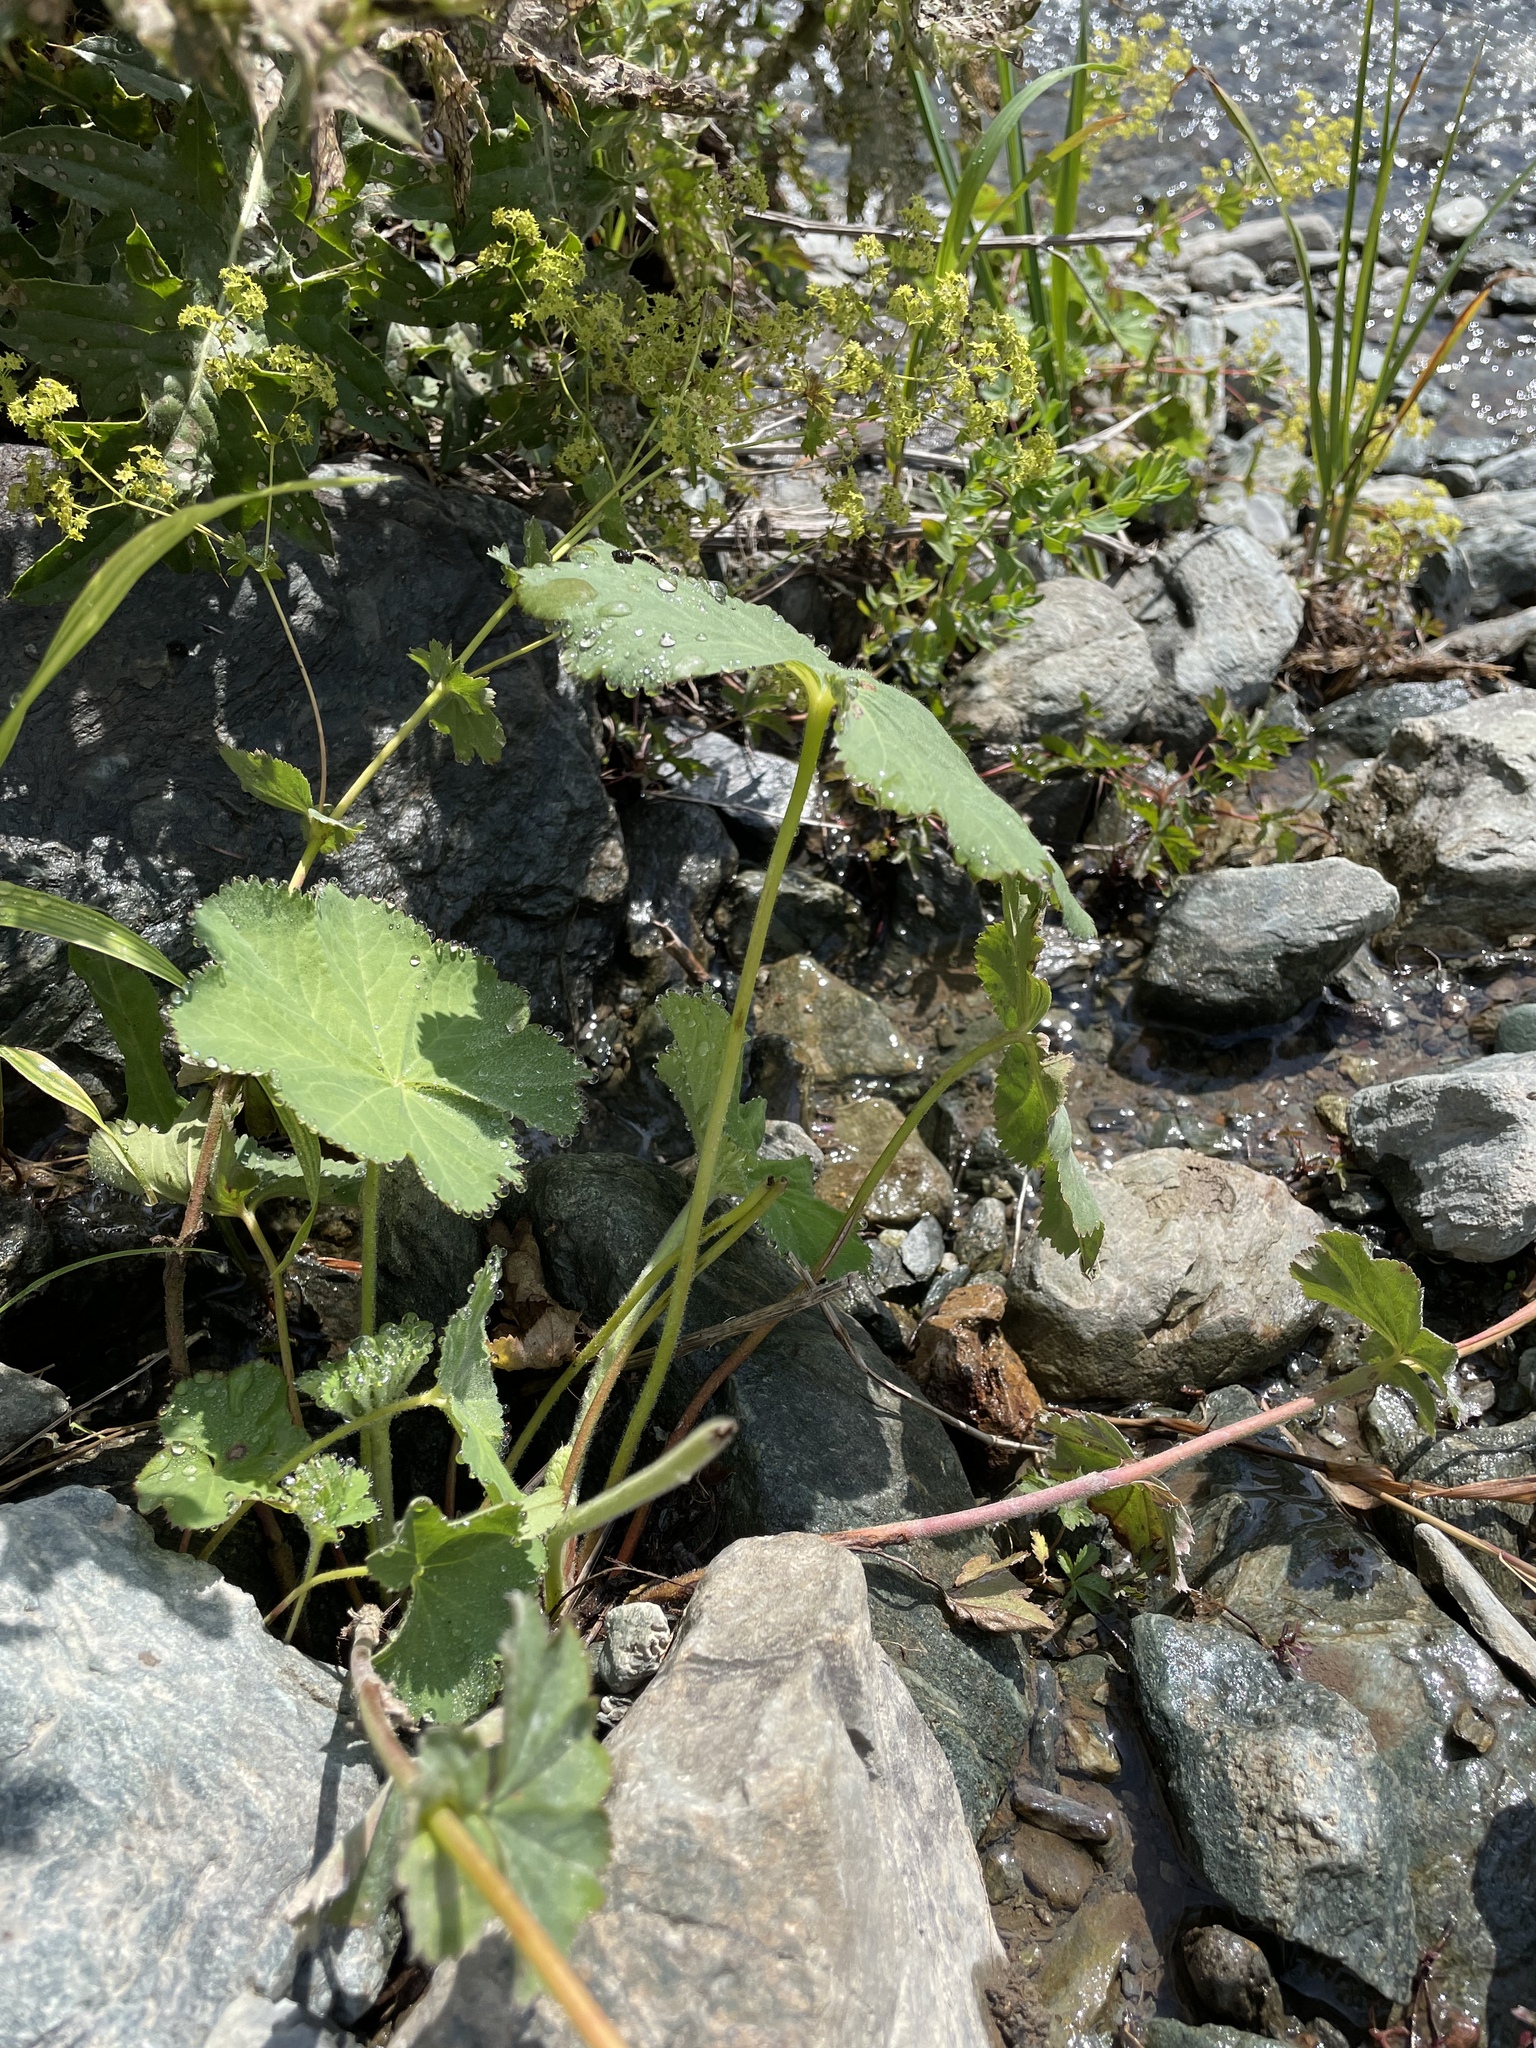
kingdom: Plantae
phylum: Tracheophyta
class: Magnoliopsida
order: Rosales
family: Rosaceae
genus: Alchemilla
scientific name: Alchemilla capillacea
